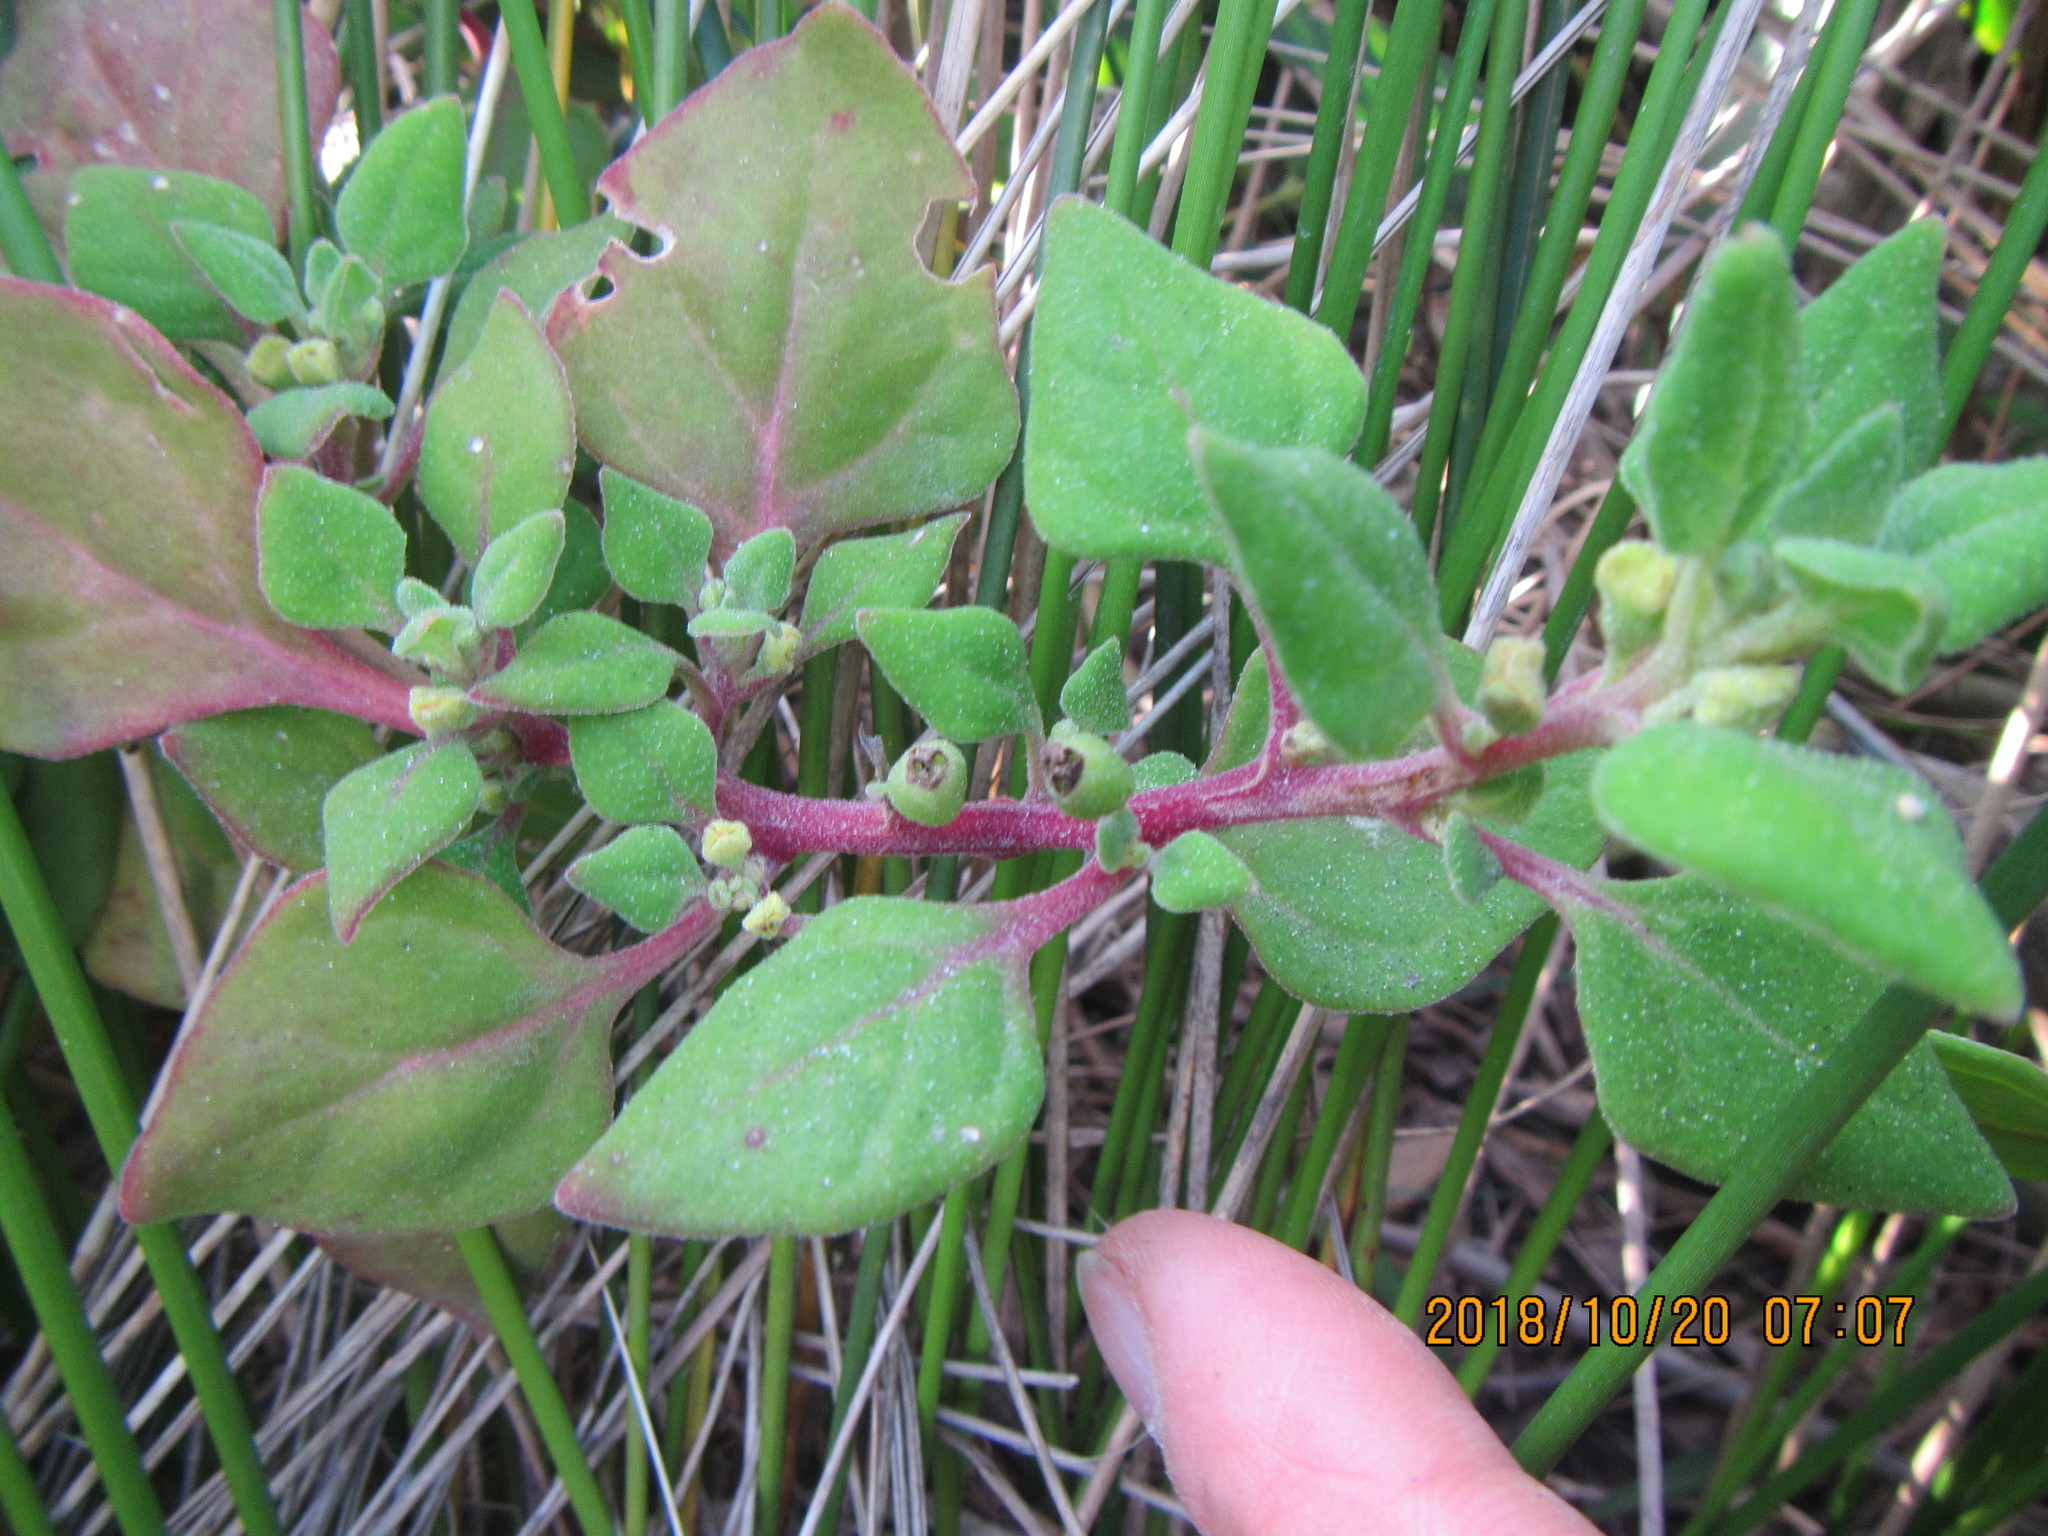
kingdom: Plantae
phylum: Tracheophyta
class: Magnoliopsida
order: Caryophyllales
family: Aizoaceae
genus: Tetragonia
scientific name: Tetragonia tetragonoides
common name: New zealand-spinach
